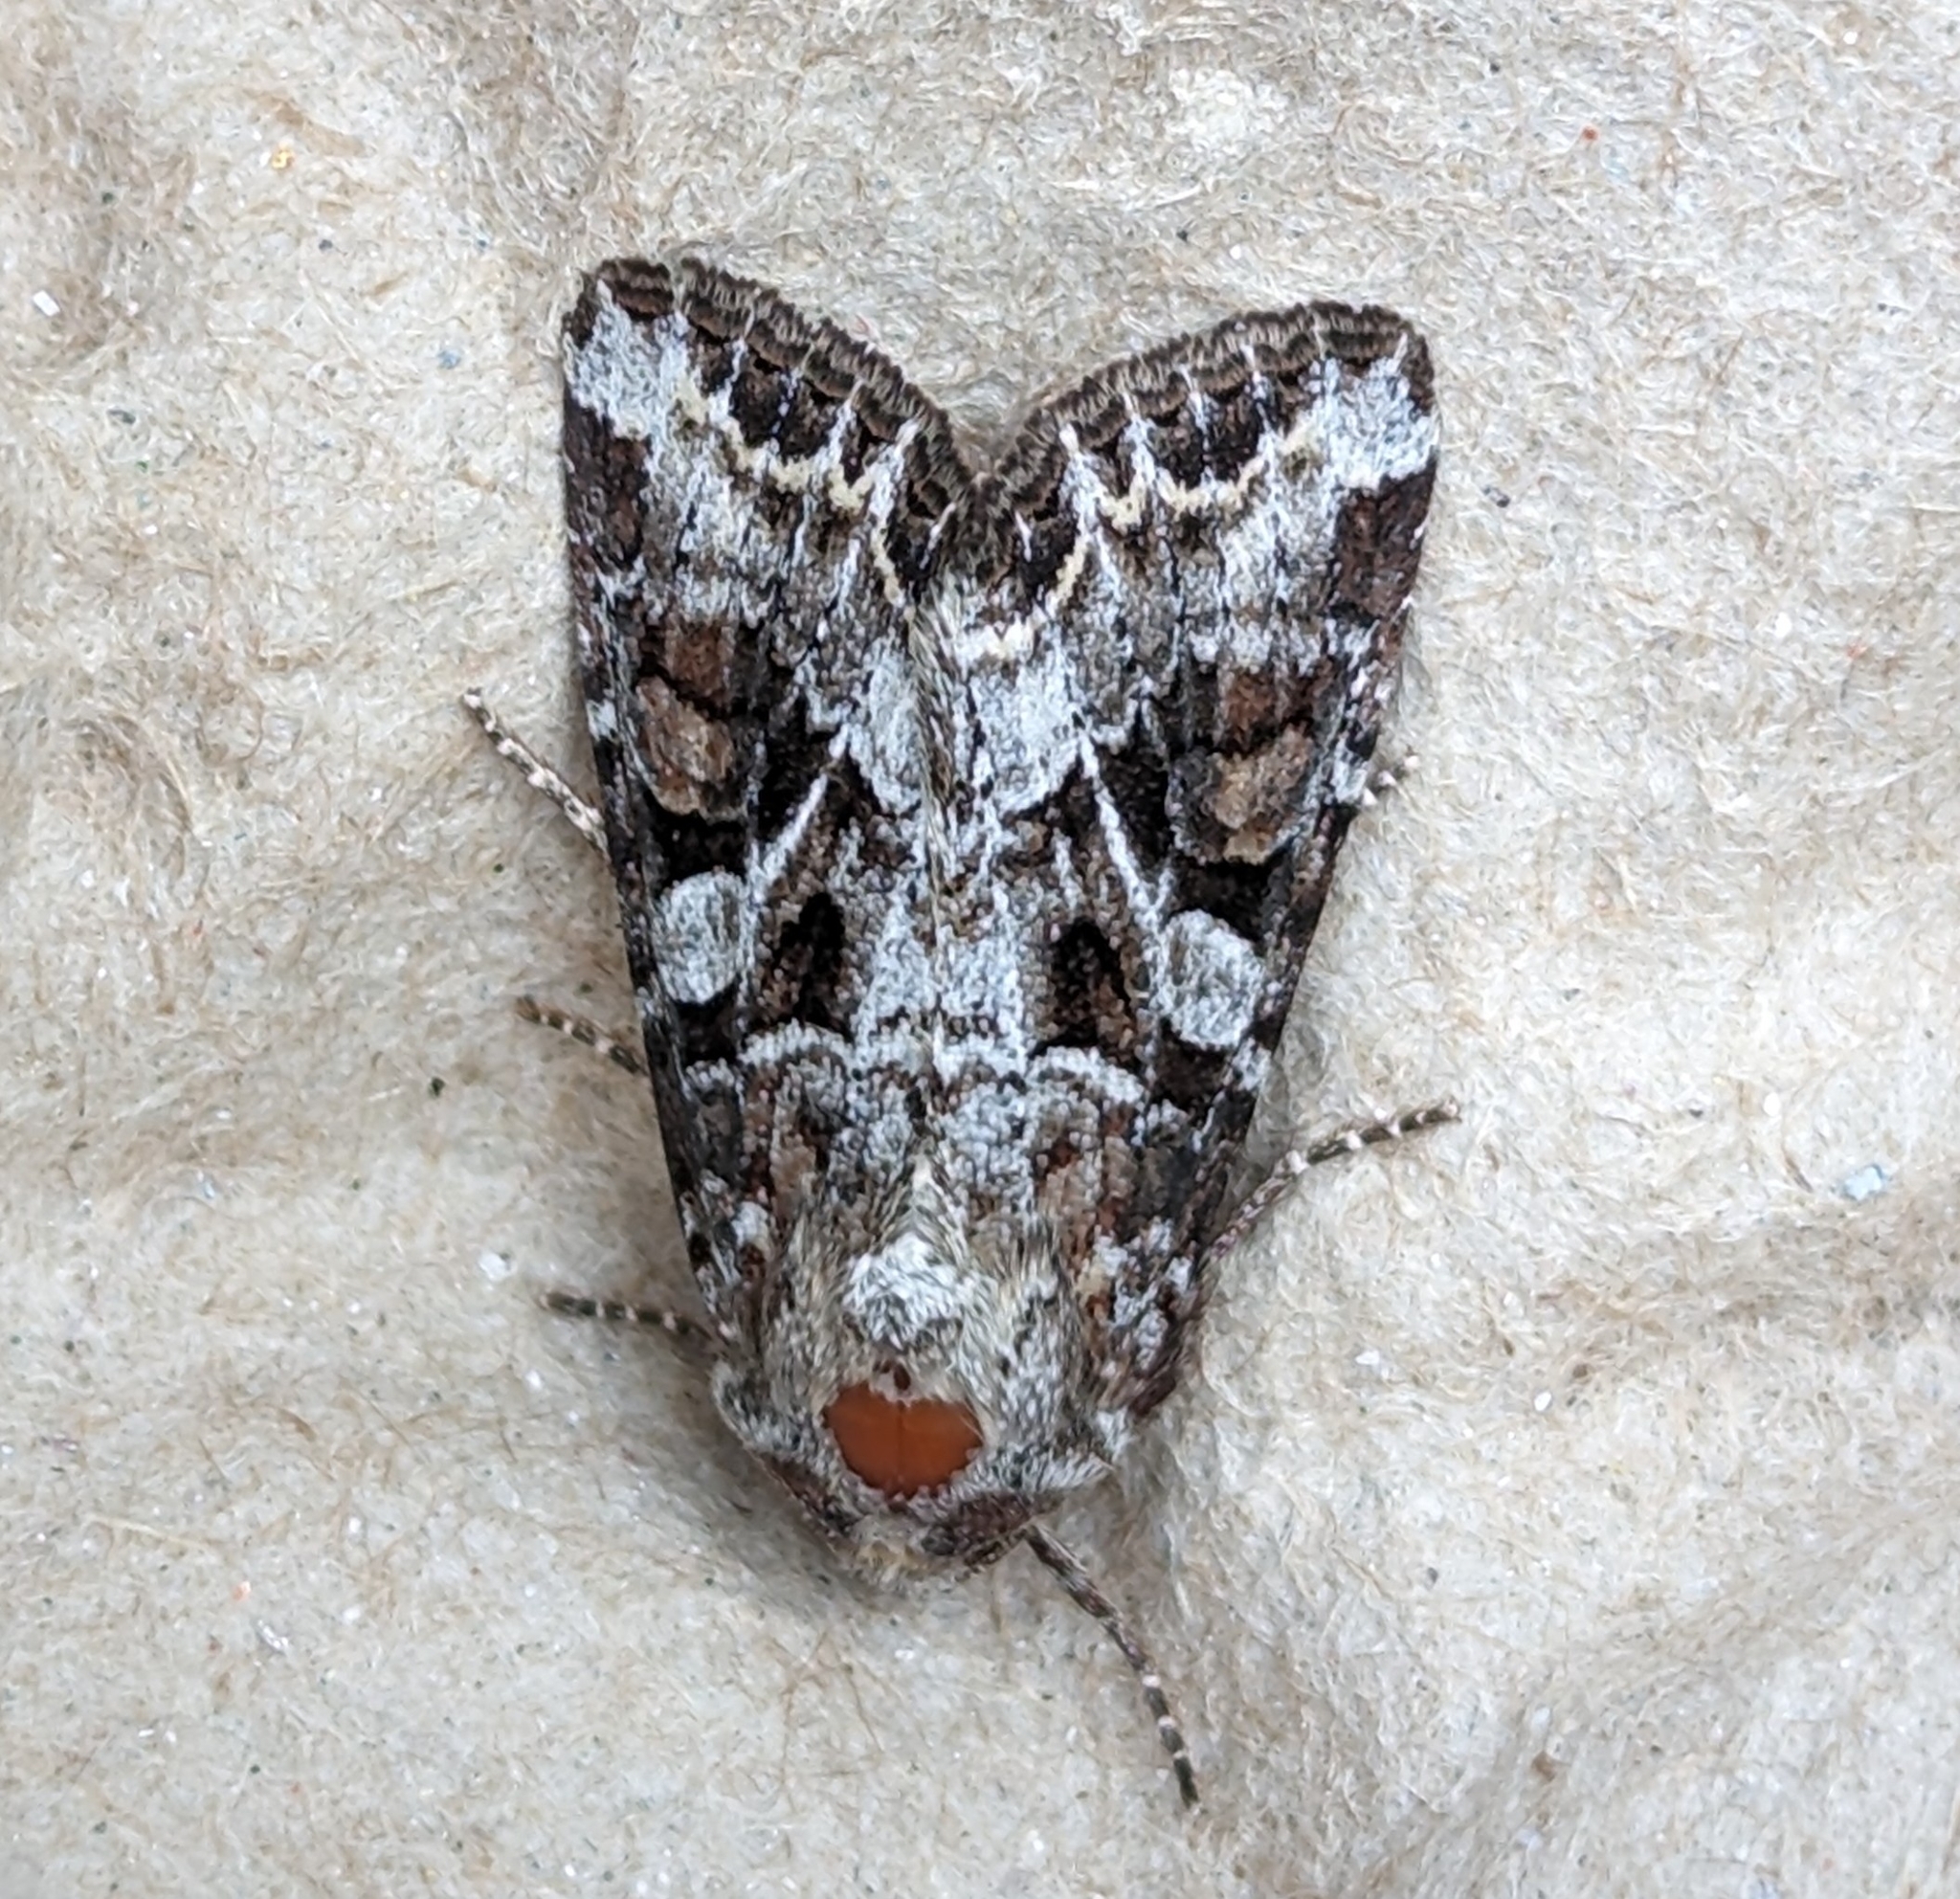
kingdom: Animalia
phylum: Arthropoda
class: Insecta
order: Lepidoptera
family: Noctuidae
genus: Trichordestra
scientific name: Trichordestra liquida
